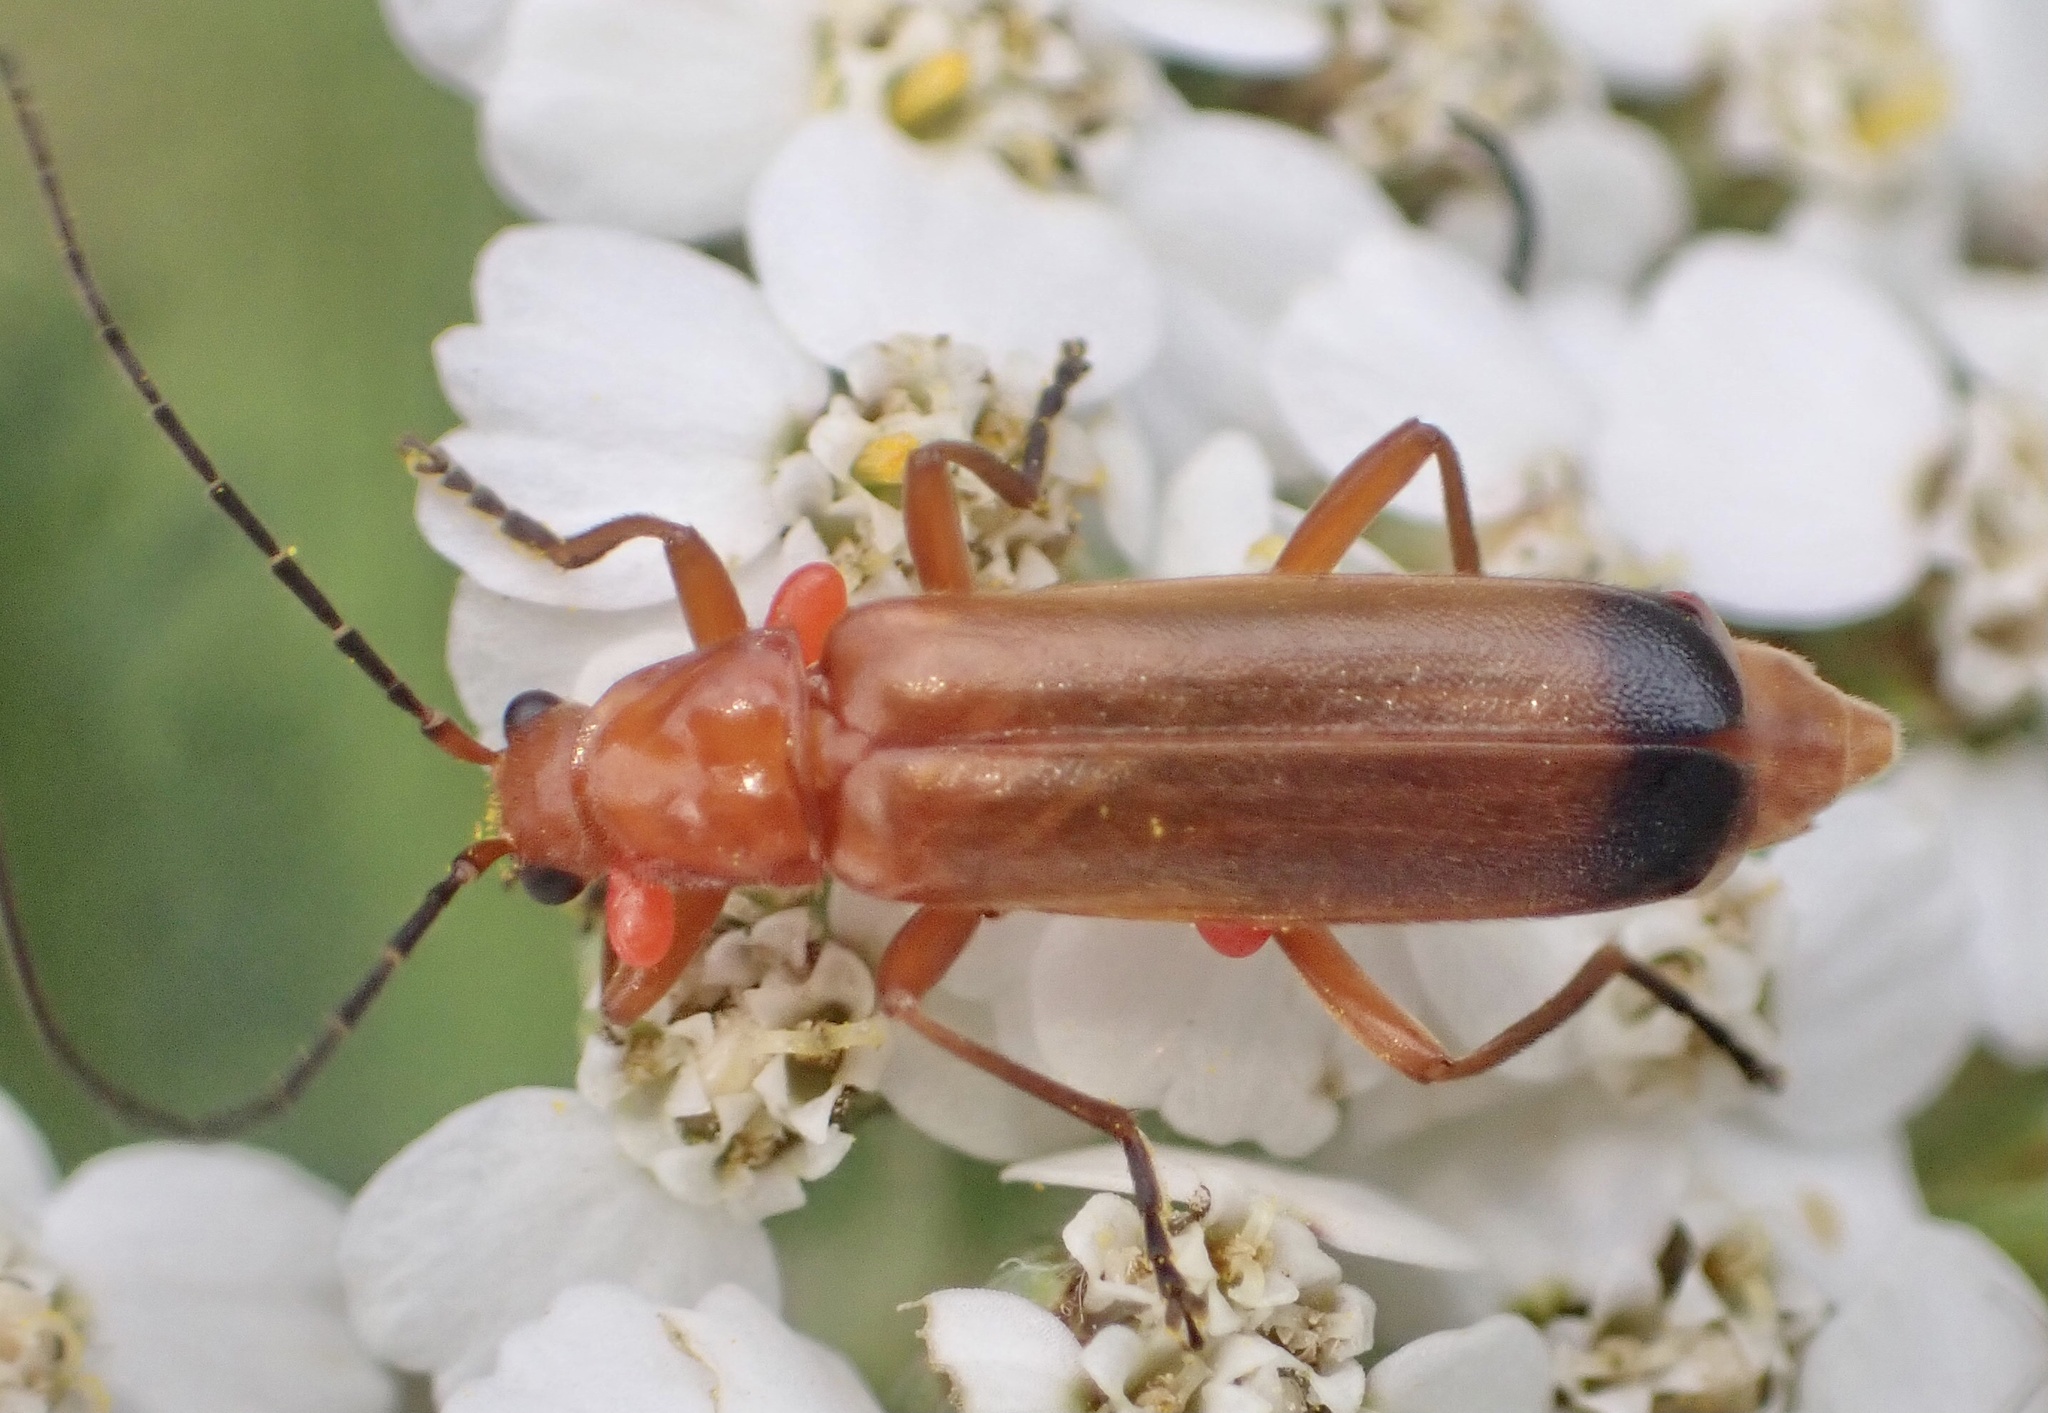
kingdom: Animalia
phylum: Arthropoda
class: Insecta
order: Coleoptera
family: Cantharidae
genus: Rhagonycha
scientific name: Rhagonycha fulva
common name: Common red soldier beetle
